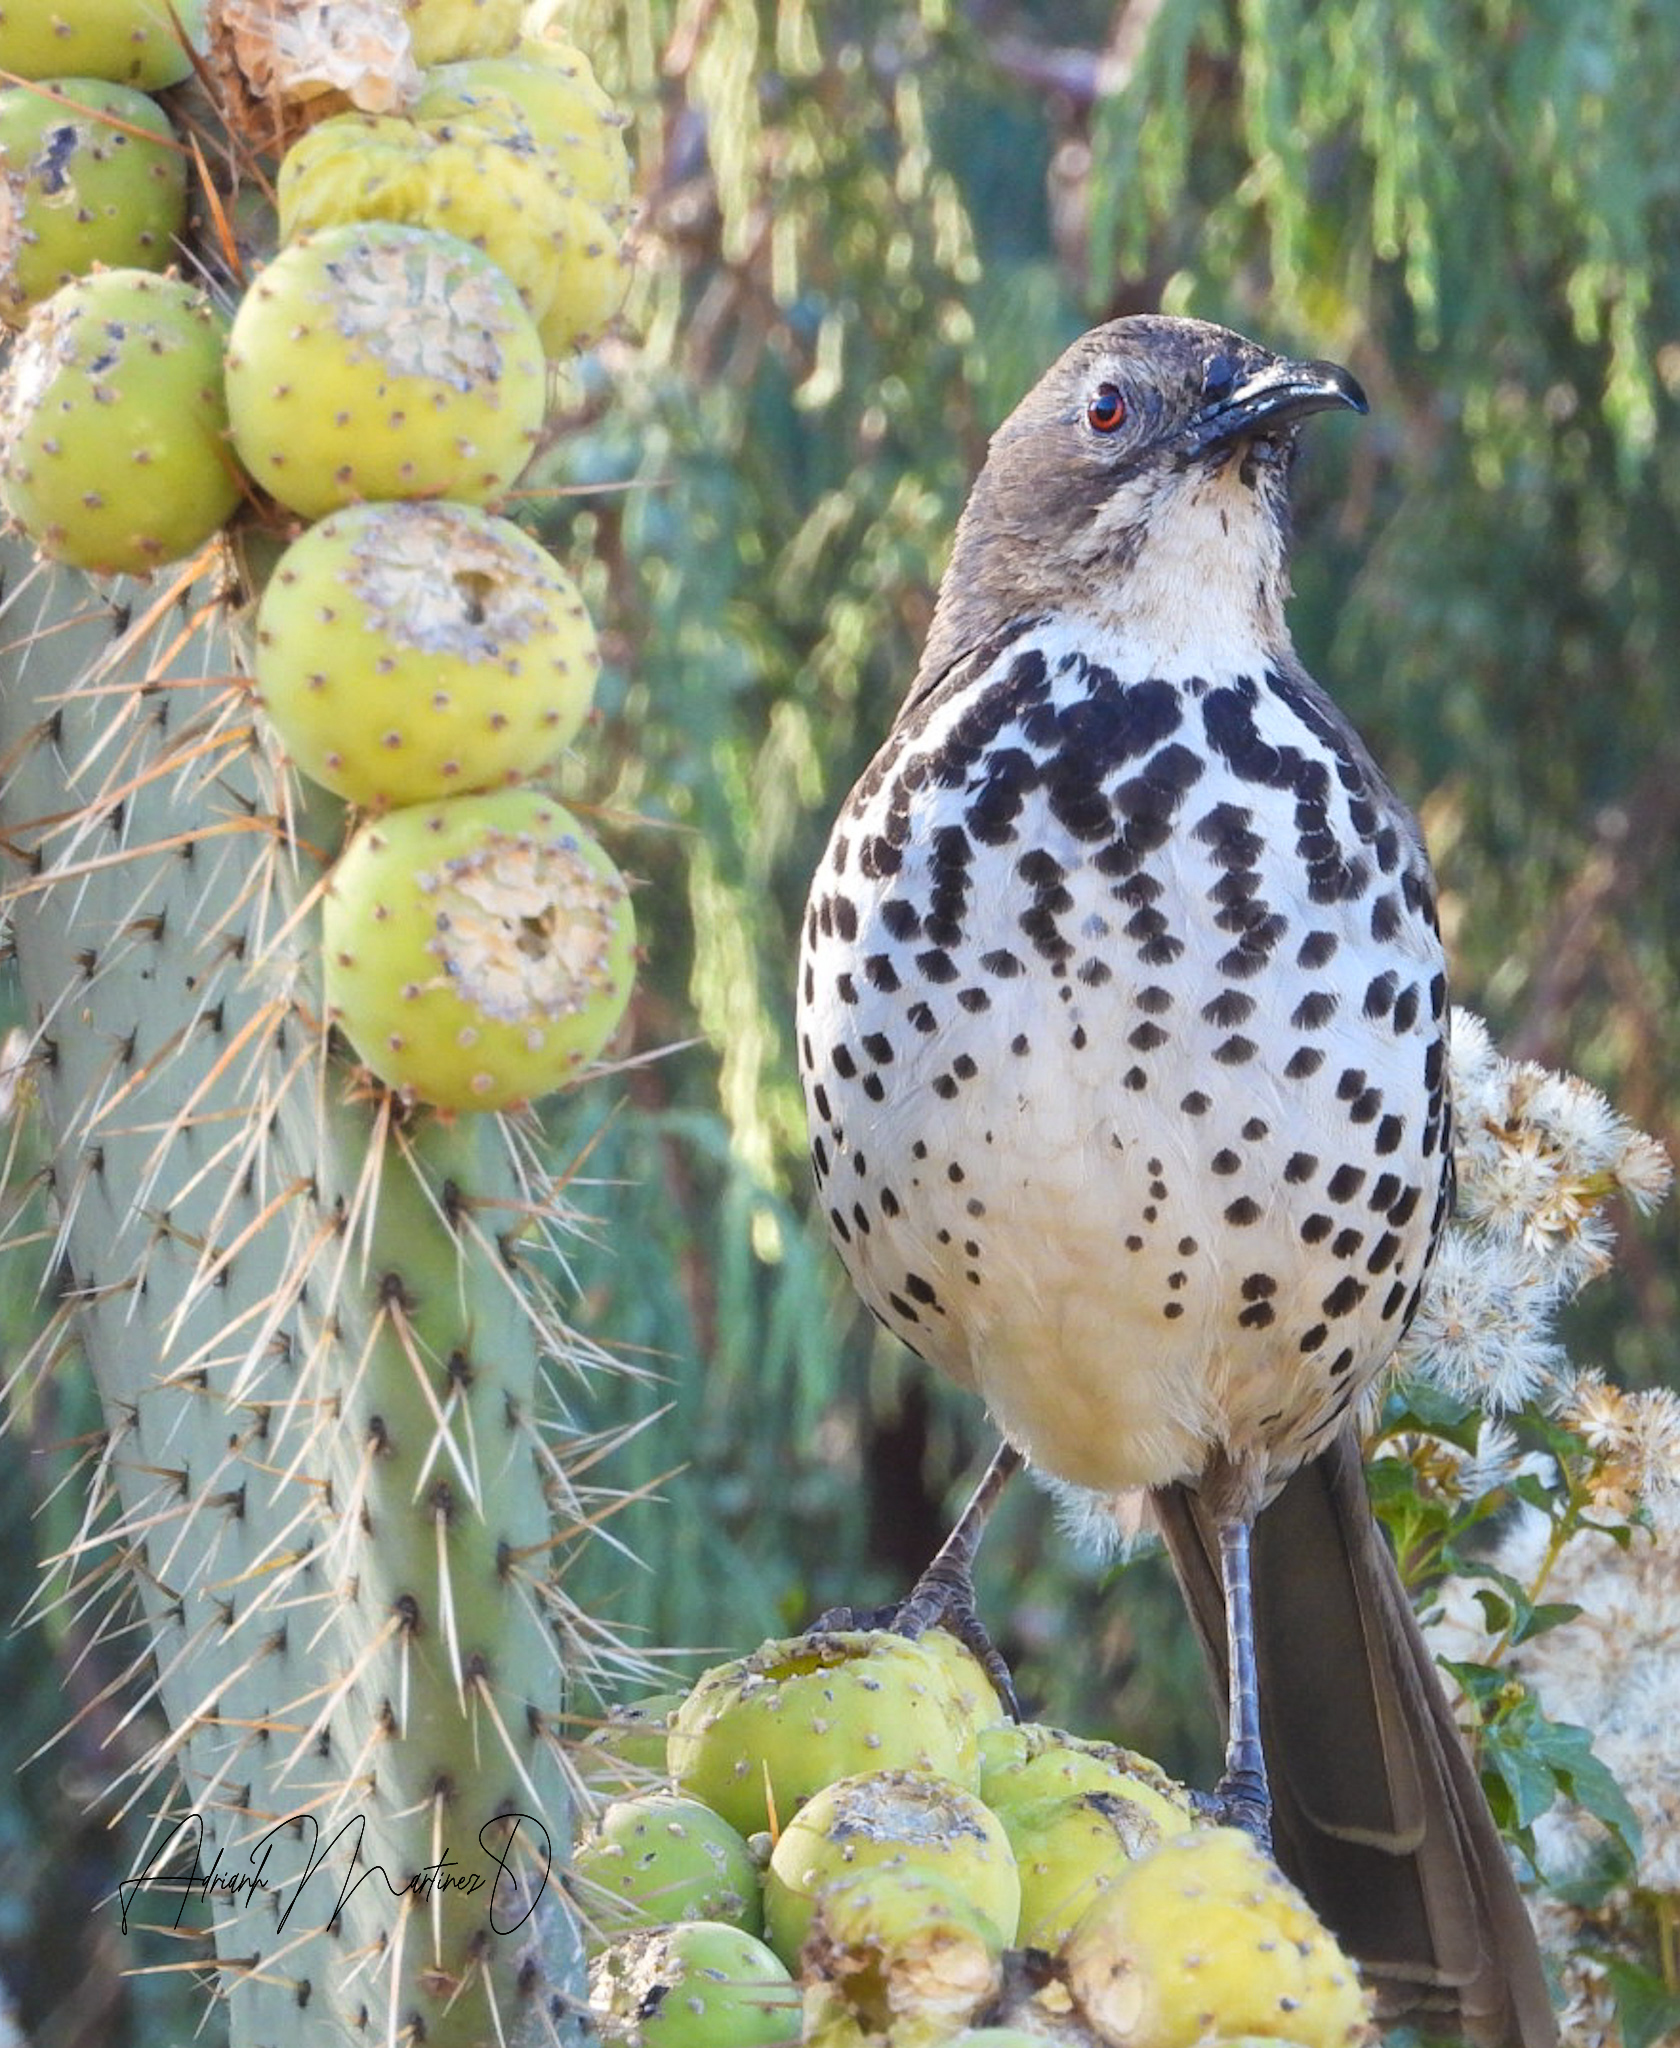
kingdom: Animalia
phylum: Chordata
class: Aves
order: Passeriformes
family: Mimidae
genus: Toxostoma
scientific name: Toxostoma ocellatum
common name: Ocellated thrasher
